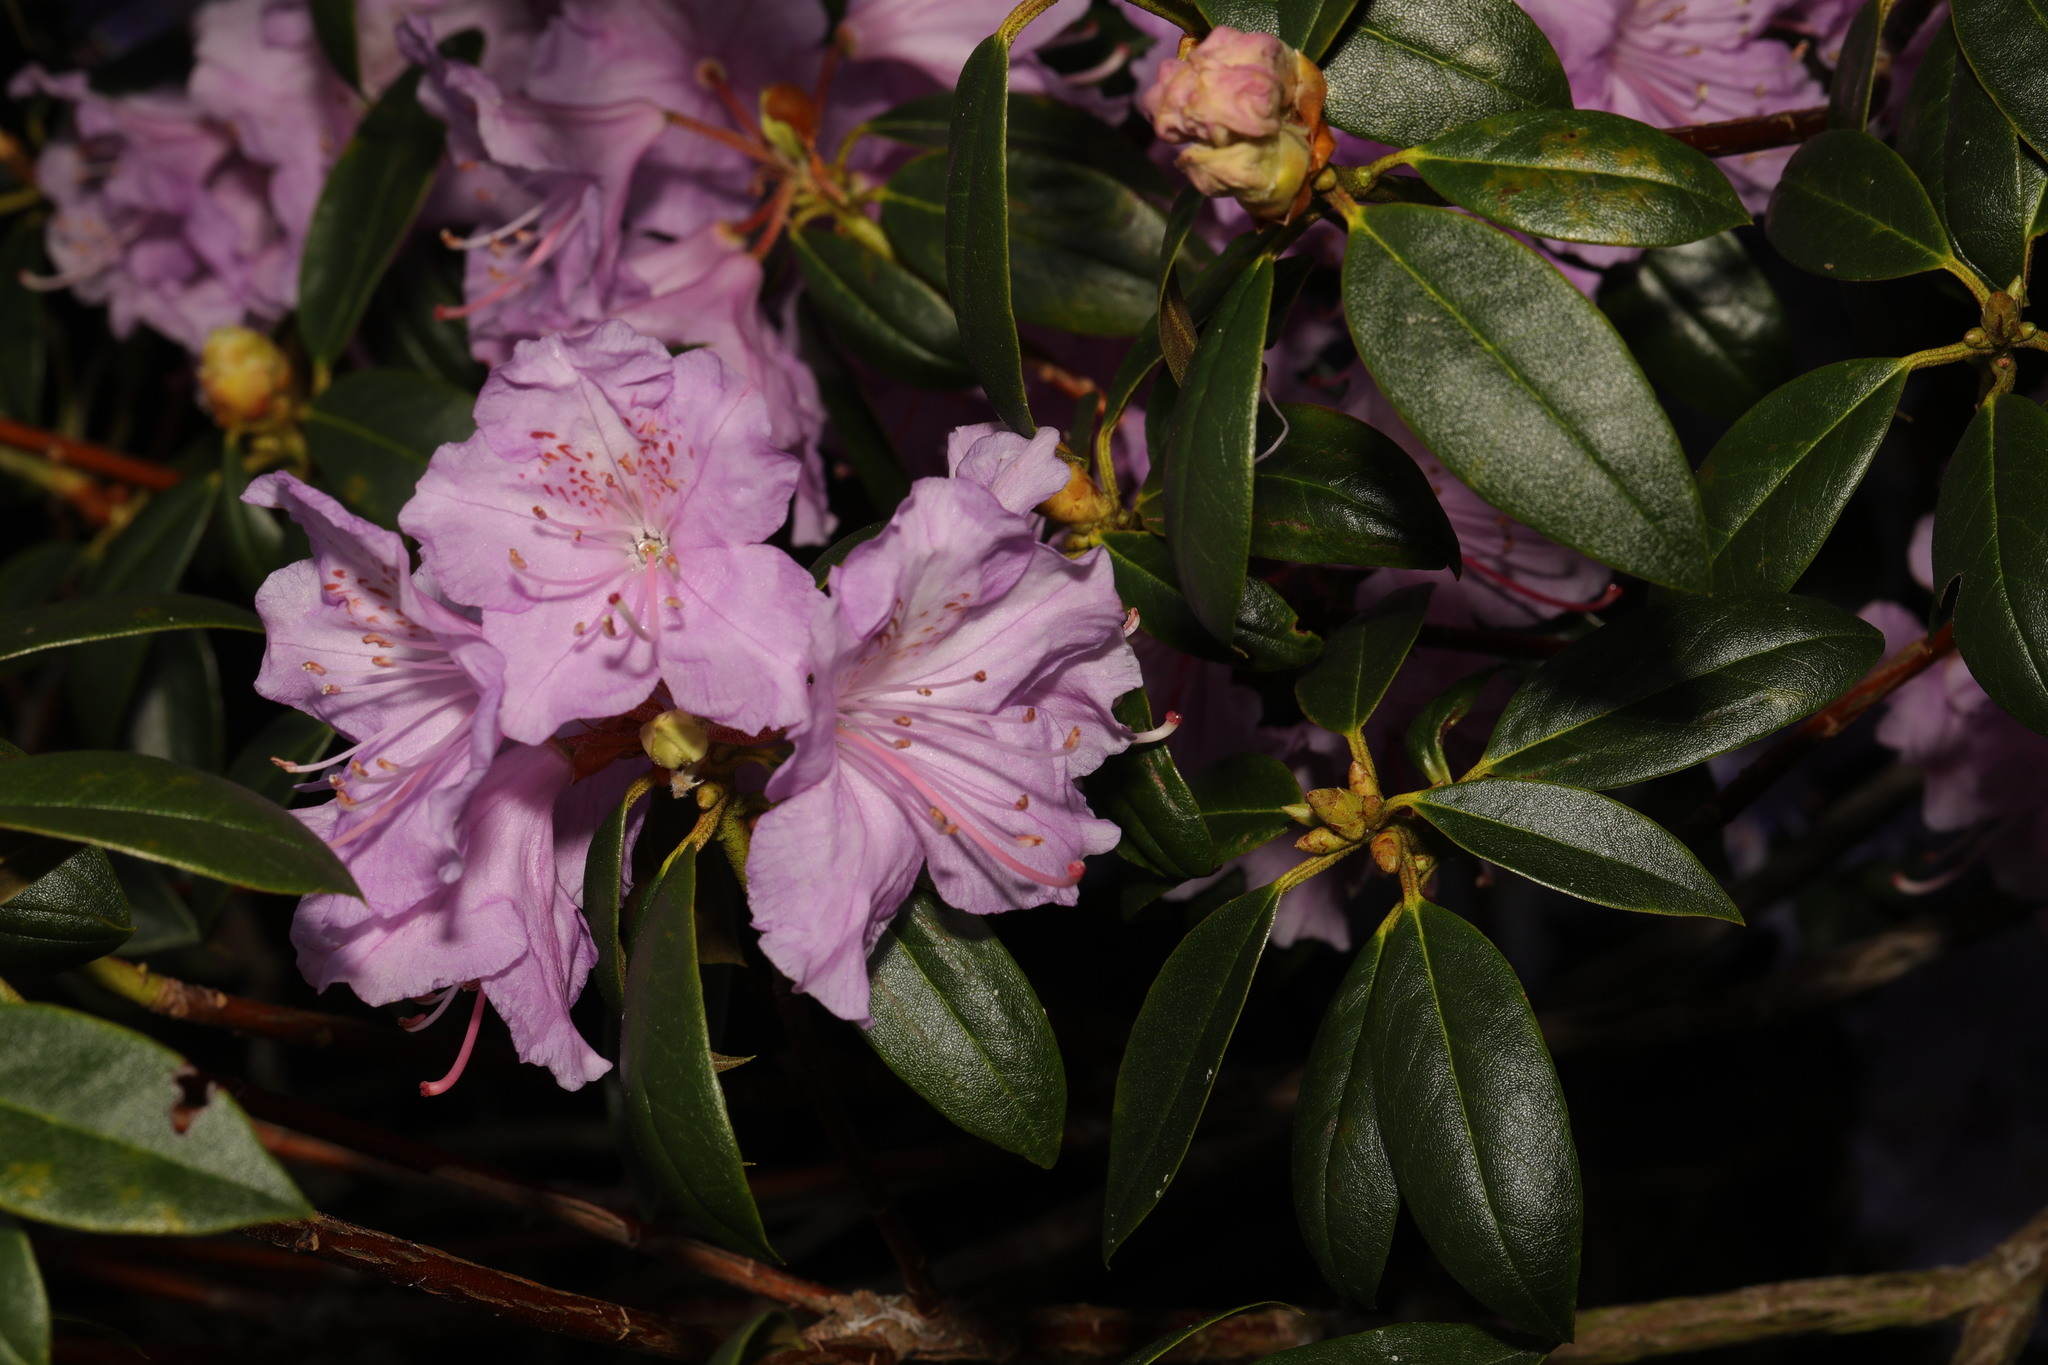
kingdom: Plantae
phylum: Tracheophyta
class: Magnoliopsida
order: Ericales
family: Ericaceae
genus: Rhododendron
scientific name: Rhododendron
